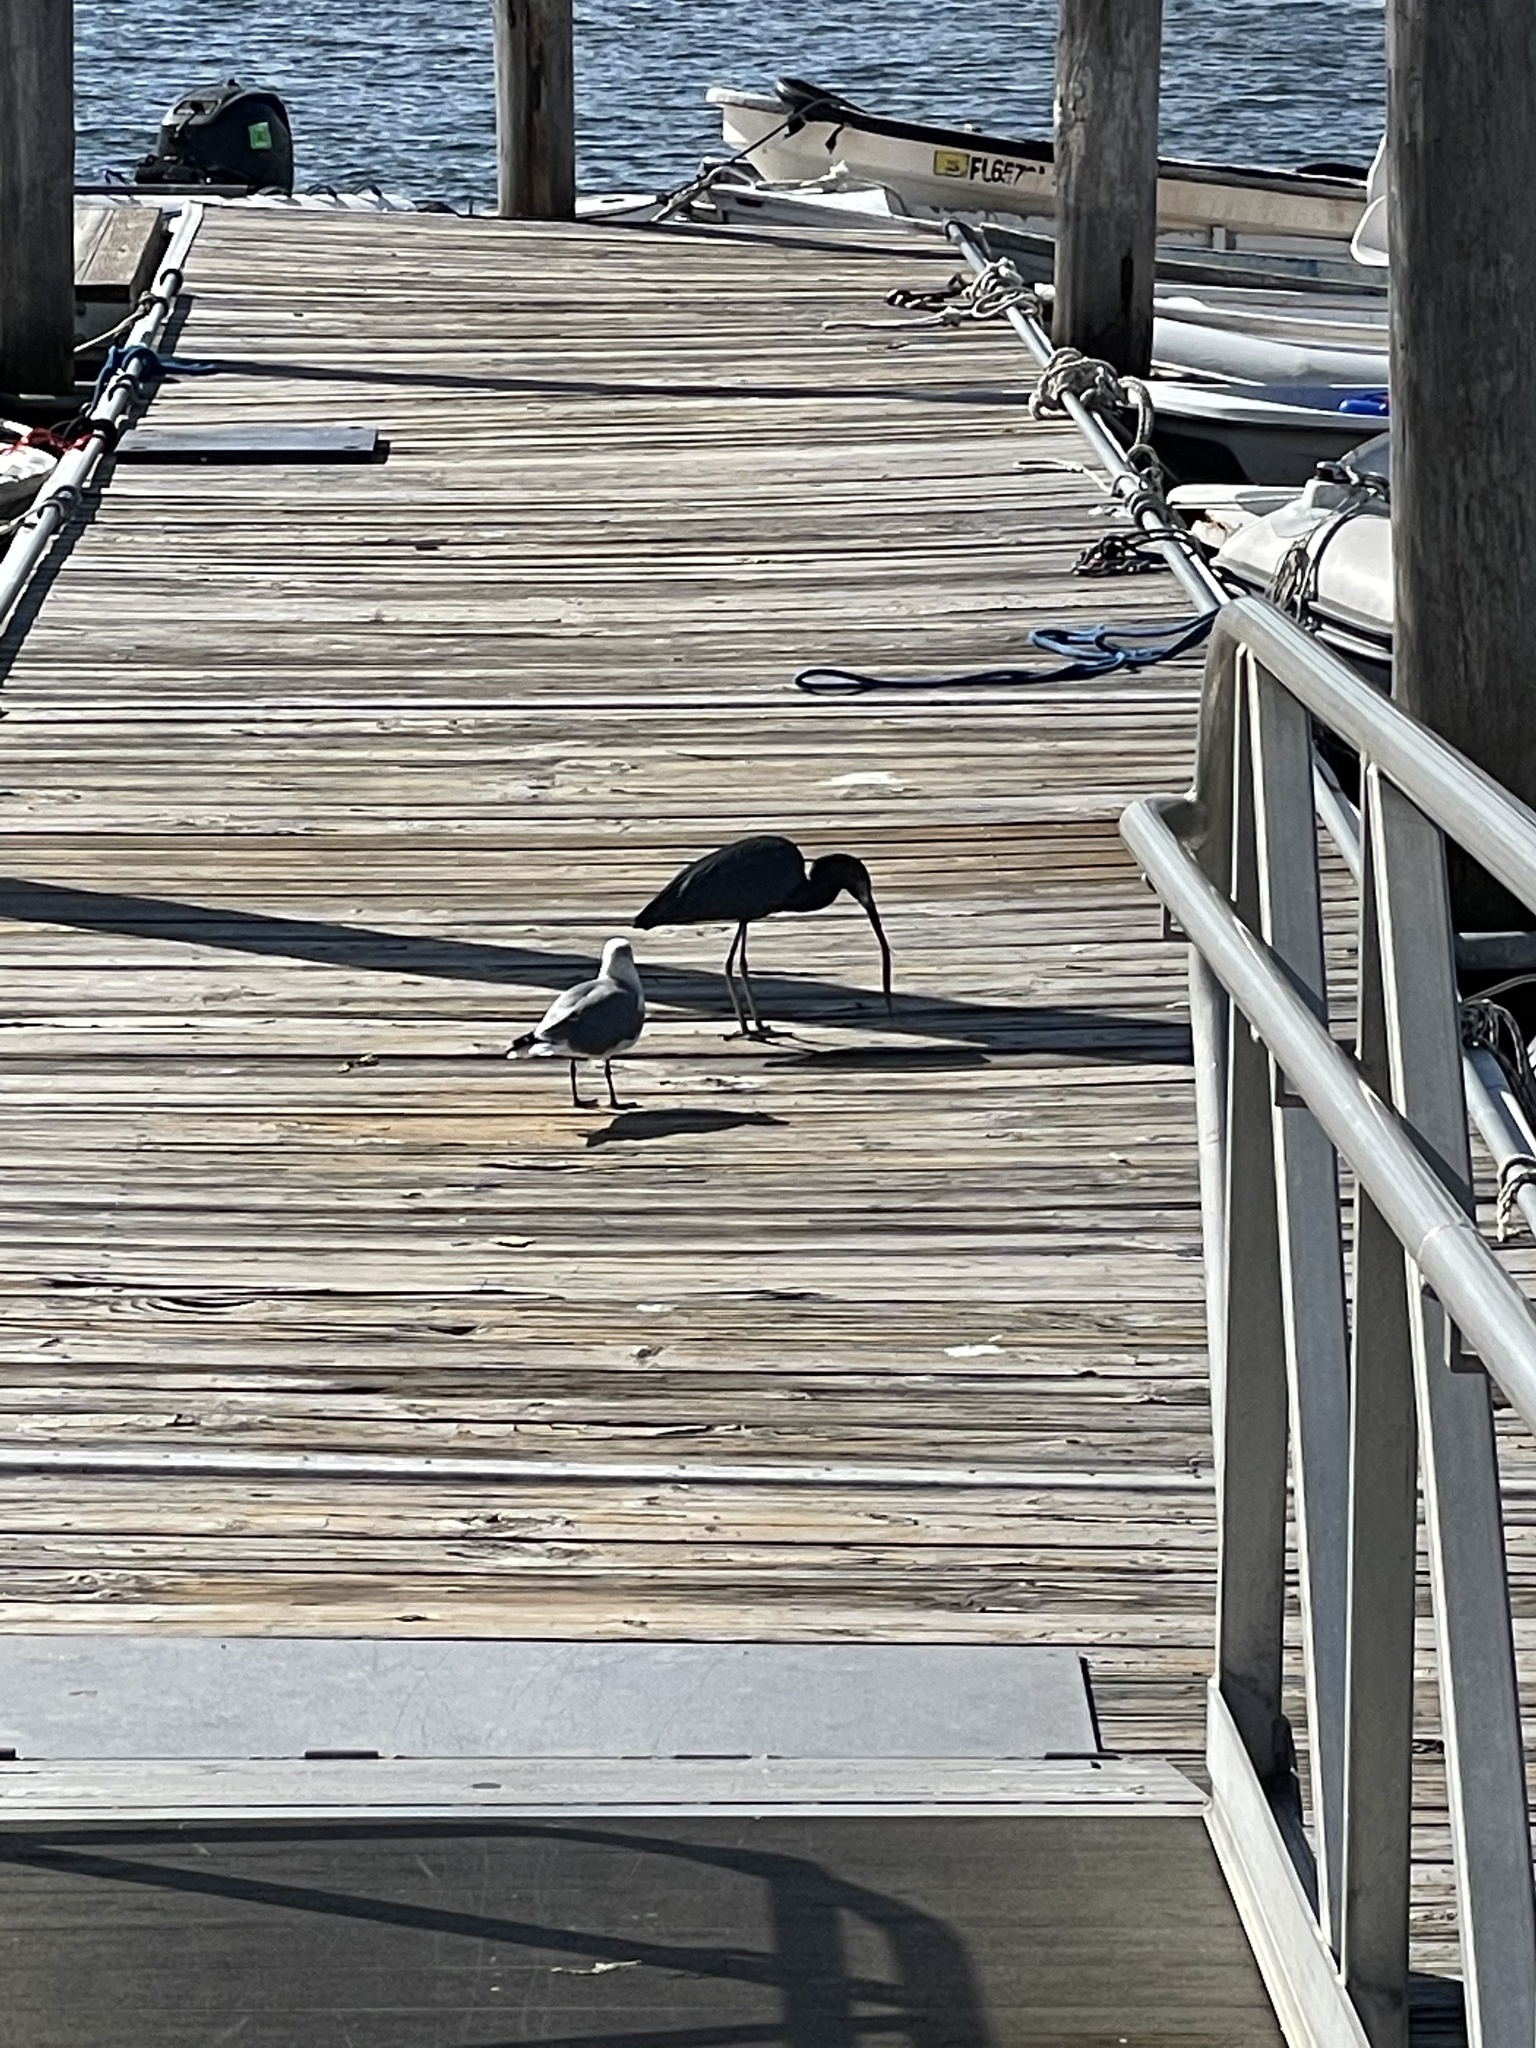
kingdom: Animalia
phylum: Chordata
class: Aves
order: Charadriiformes
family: Laridae
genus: Leucophaeus
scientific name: Leucophaeus atricilla
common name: Laughing gull
